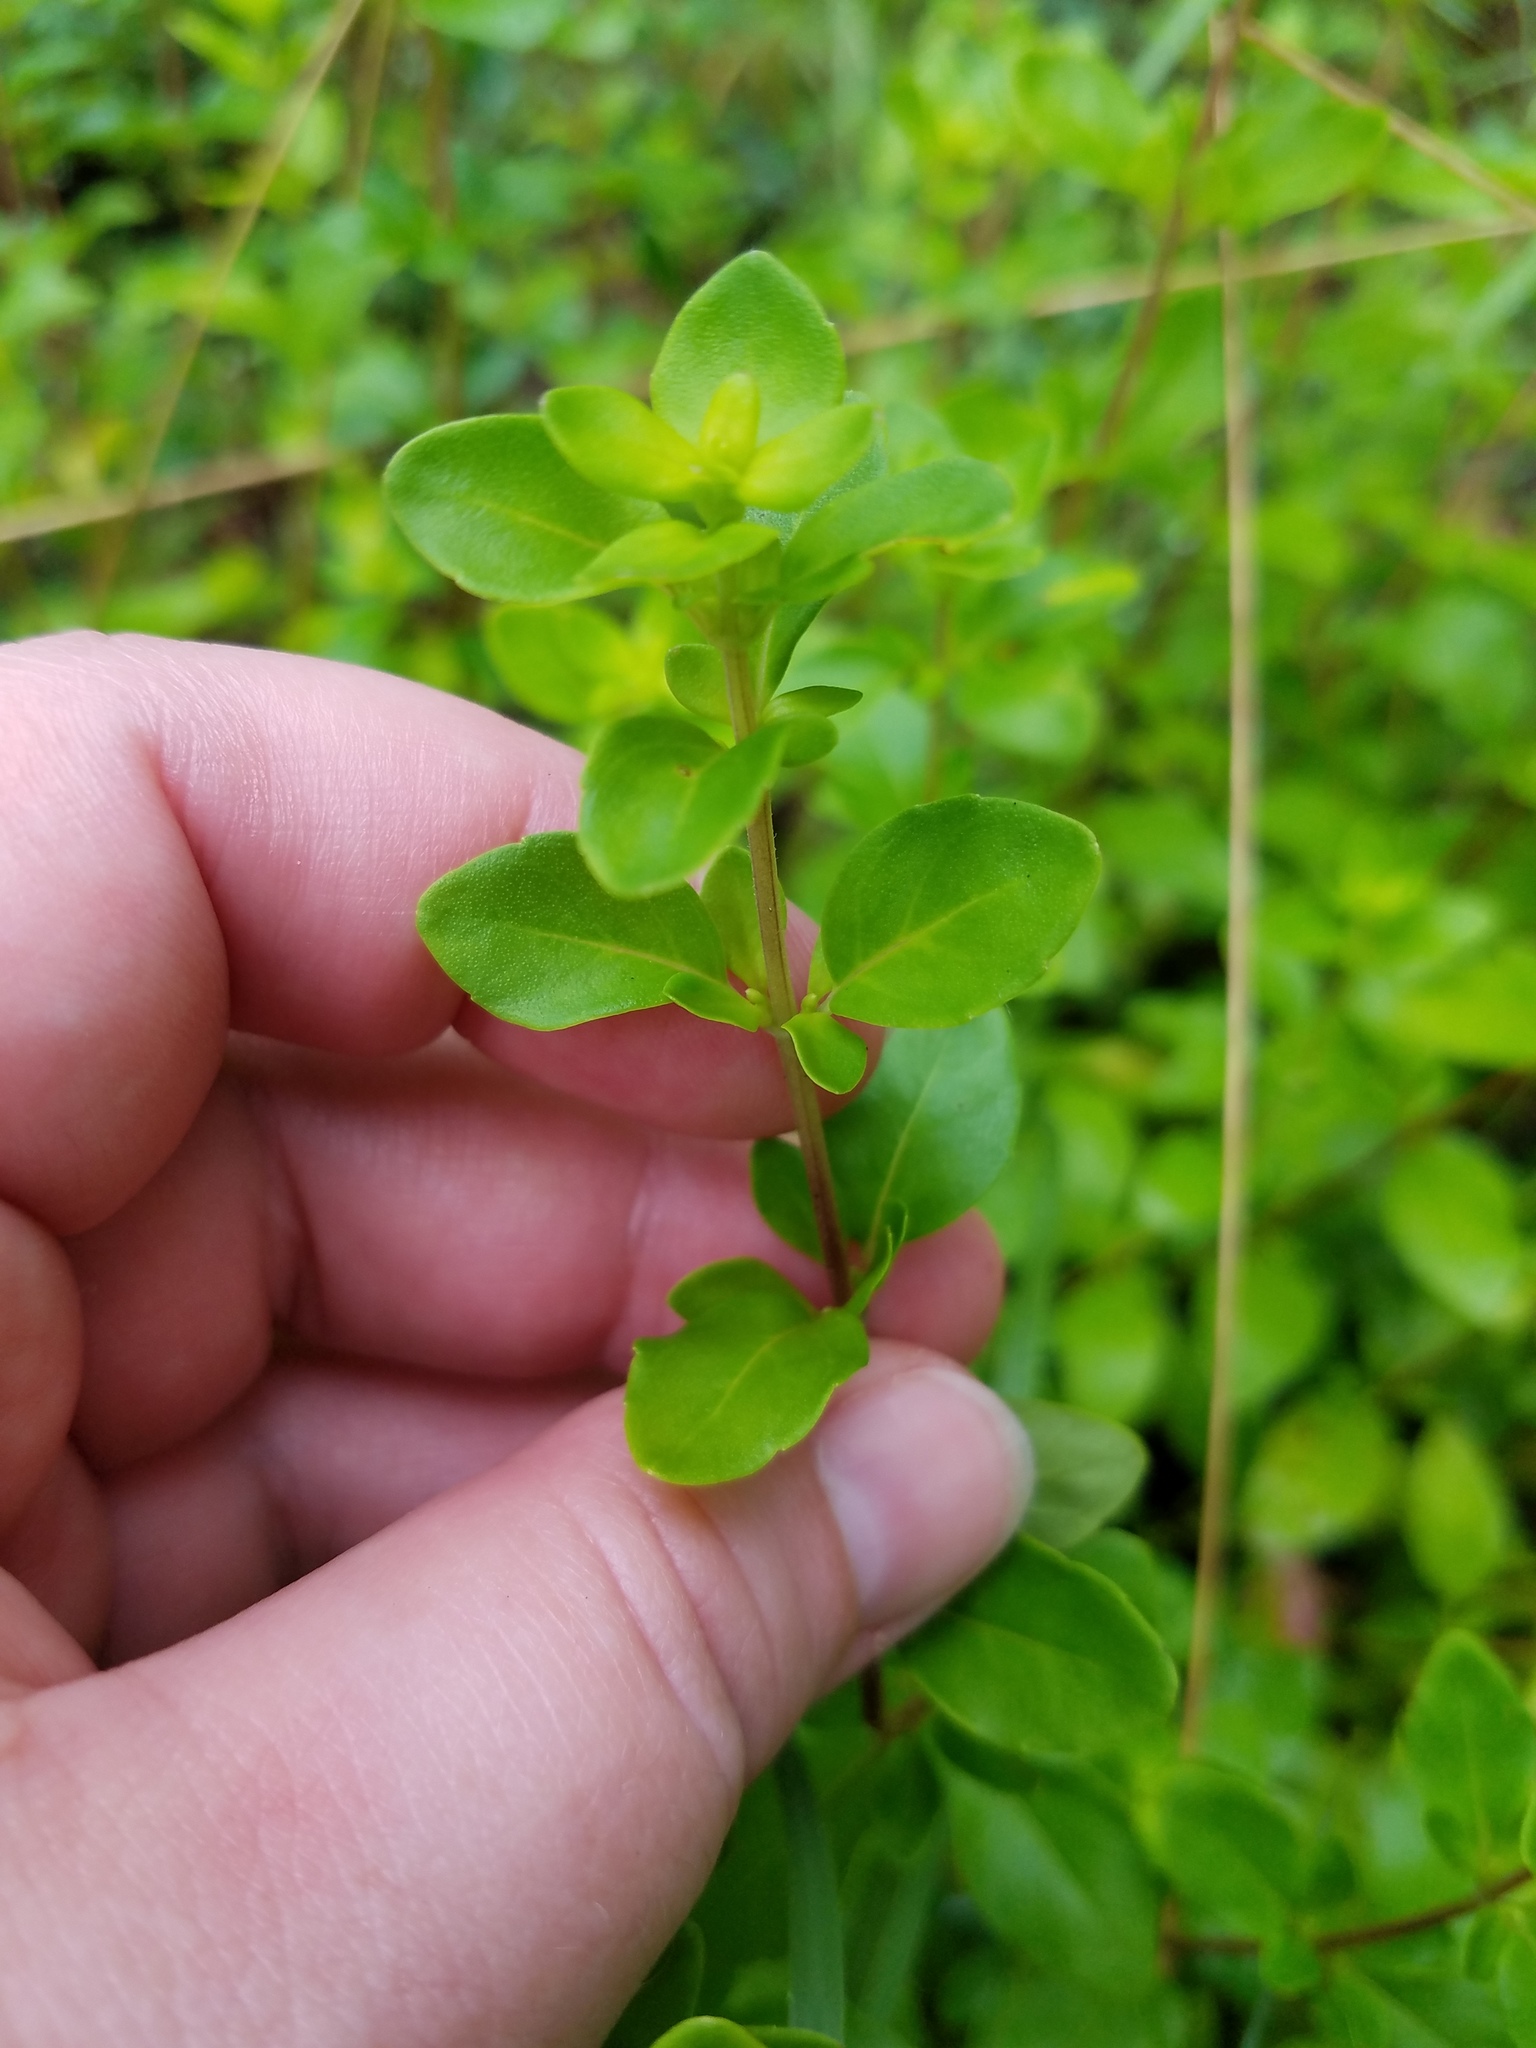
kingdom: Plantae
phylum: Tracheophyta
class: Magnoliopsida
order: Lamiales
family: Lamiaceae
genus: Clinopodium
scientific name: Clinopodium carolinianum
